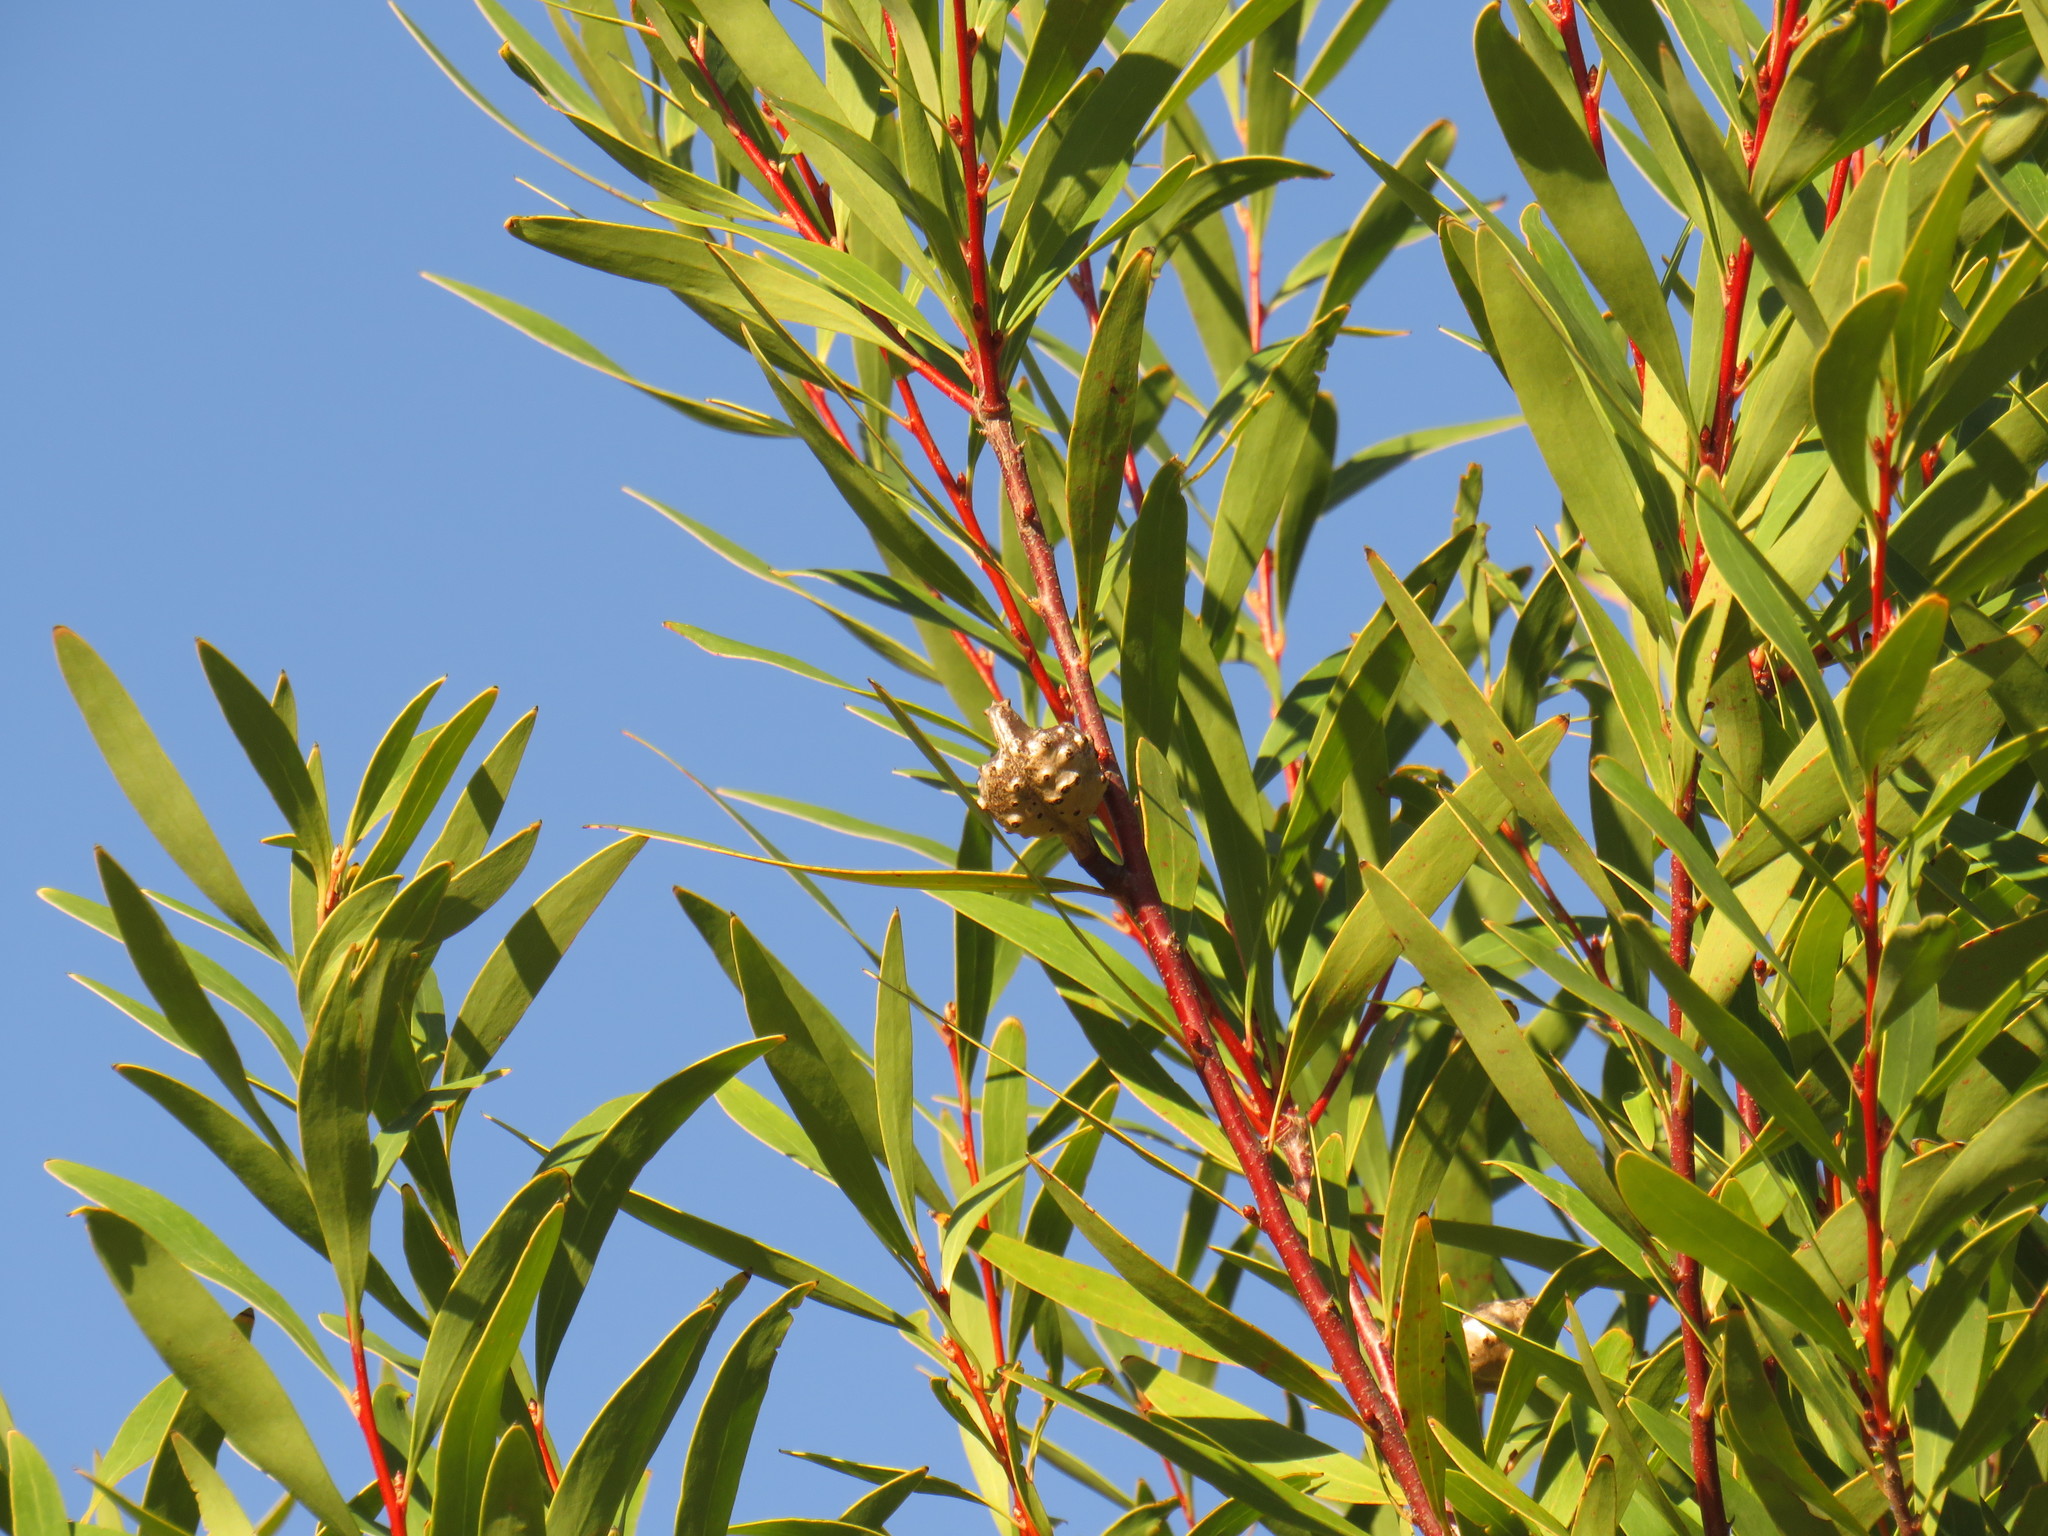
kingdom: Plantae
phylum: Tracheophyta
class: Magnoliopsida
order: Proteales
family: Proteaceae
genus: Hakea
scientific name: Hakea salicifolia
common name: Willow hakea
